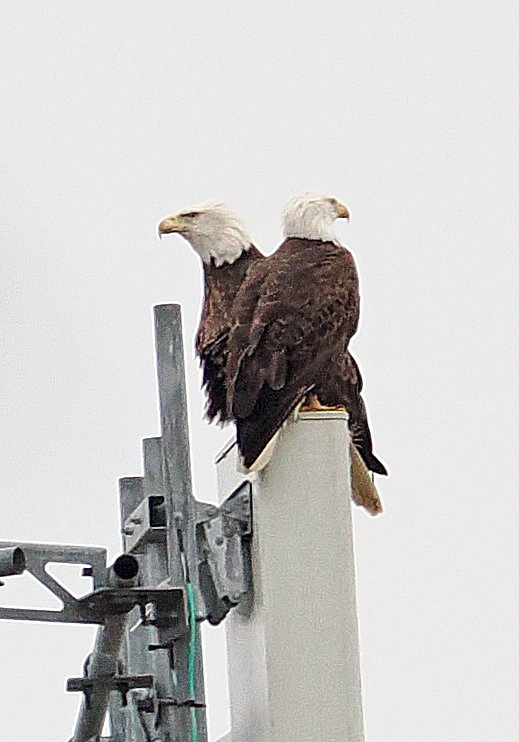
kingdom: Animalia
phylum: Chordata
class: Aves
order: Accipitriformes
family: Accipitridae
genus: Haliaeetus
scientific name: Haliaeetus leucocephalus
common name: Bald eagle
